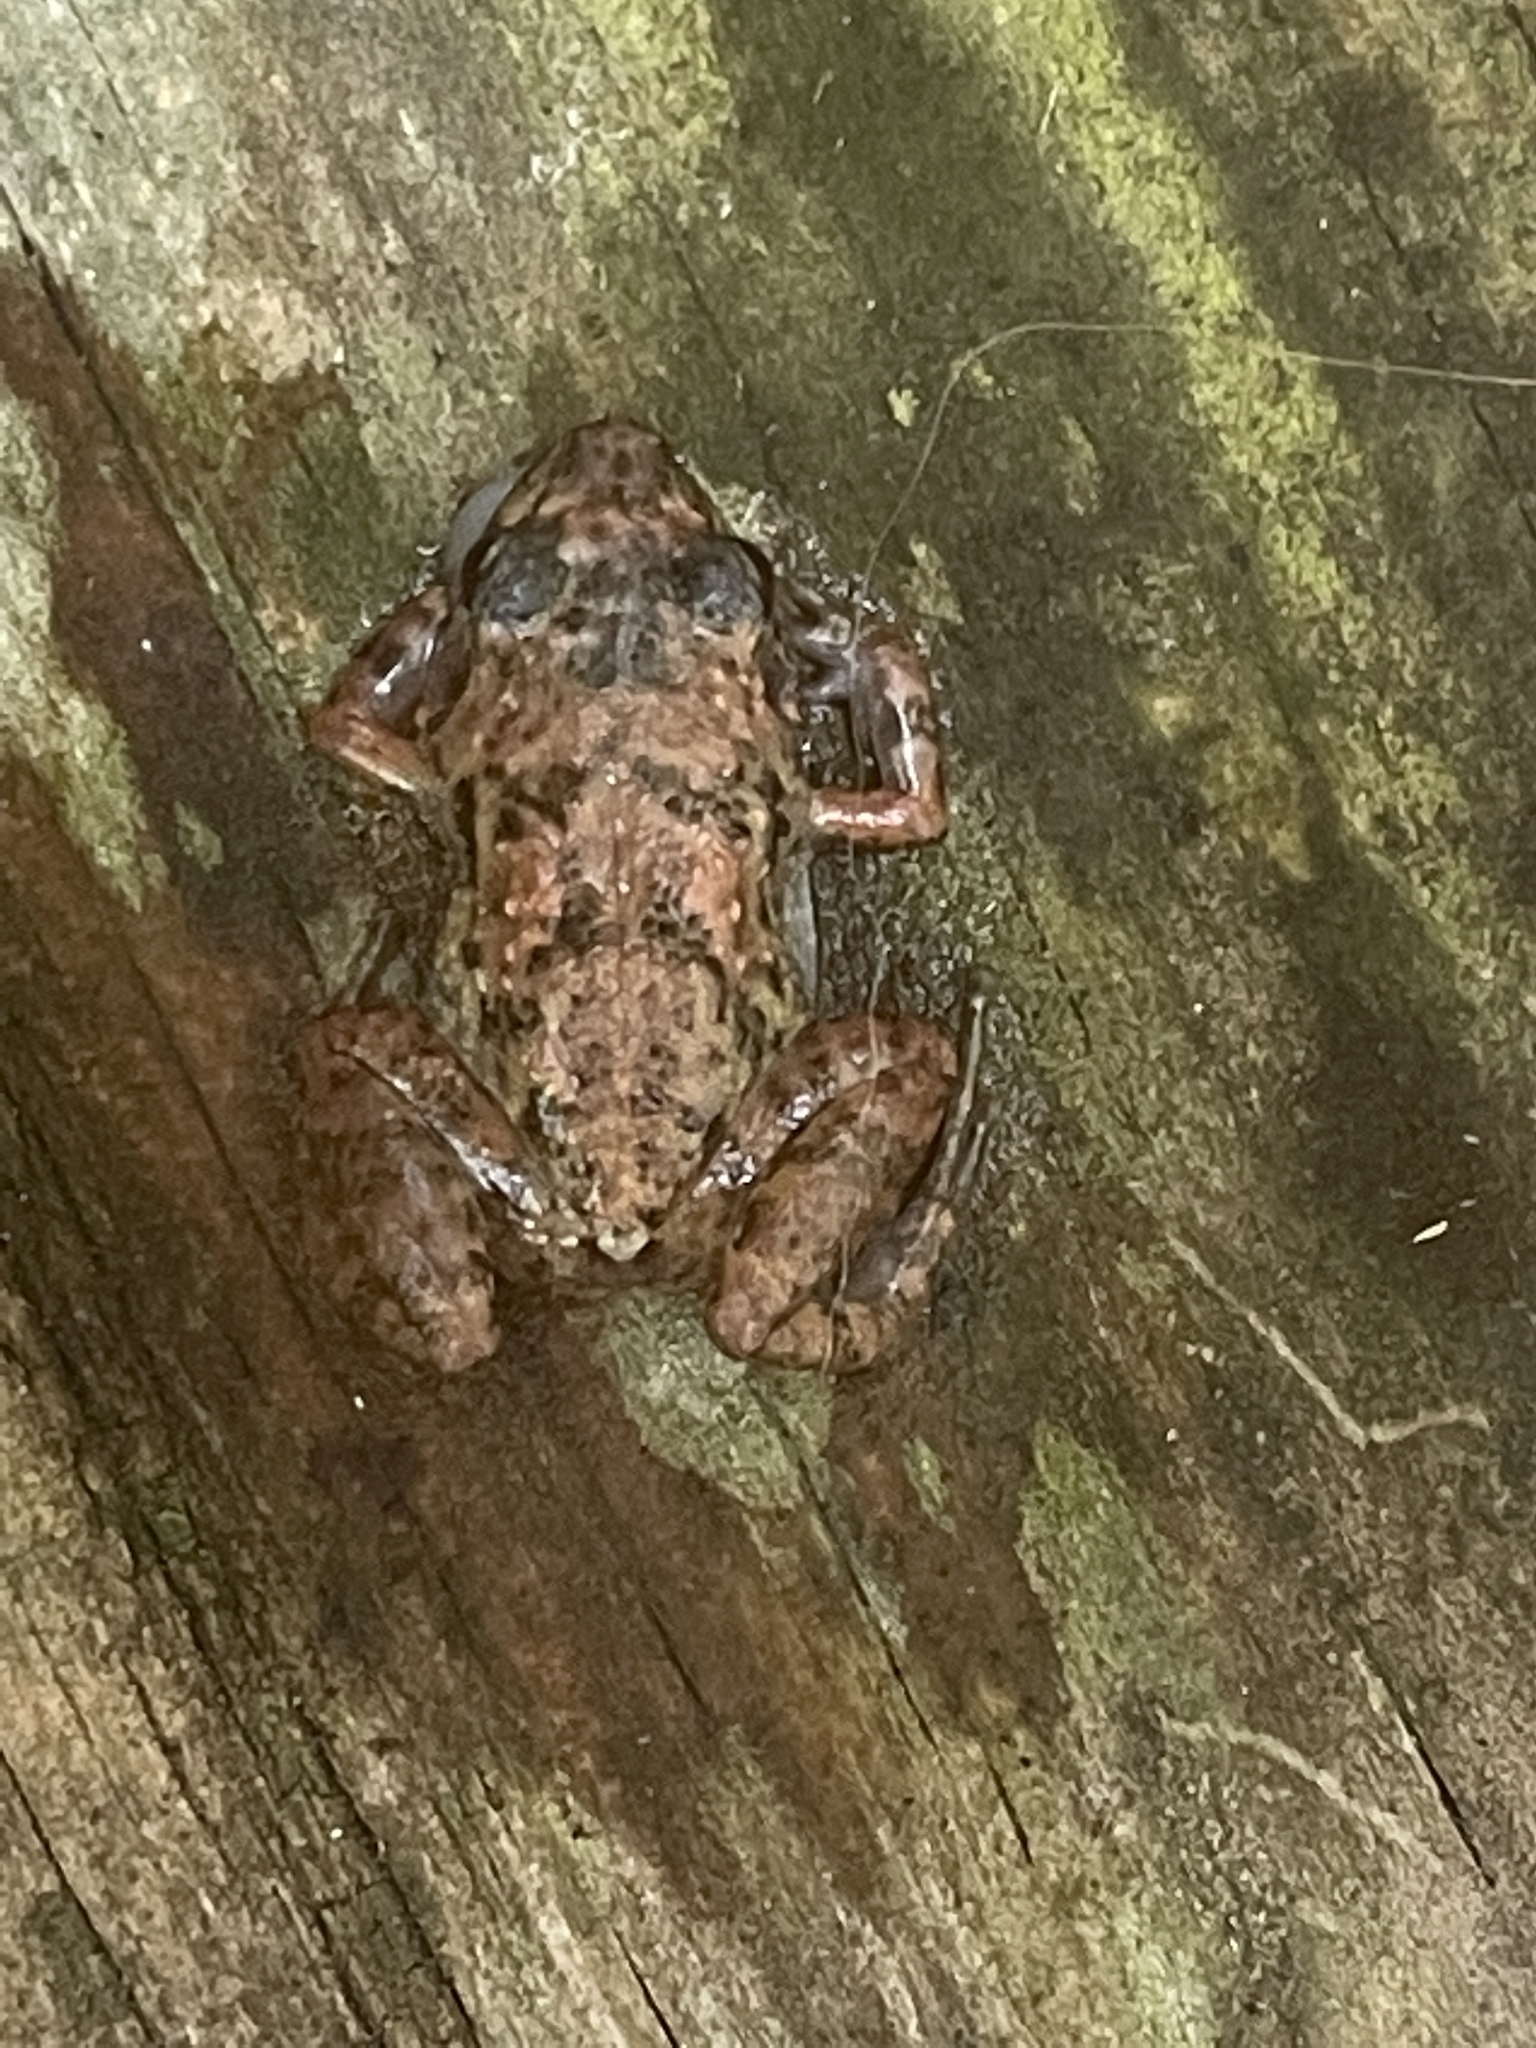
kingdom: Animalia
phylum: Chordata
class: Amphibia
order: Anura
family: Eleutherodactylidae
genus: Eleutherodactylus
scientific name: Eleutherodactylus planirostris
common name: Greenhouse frog
